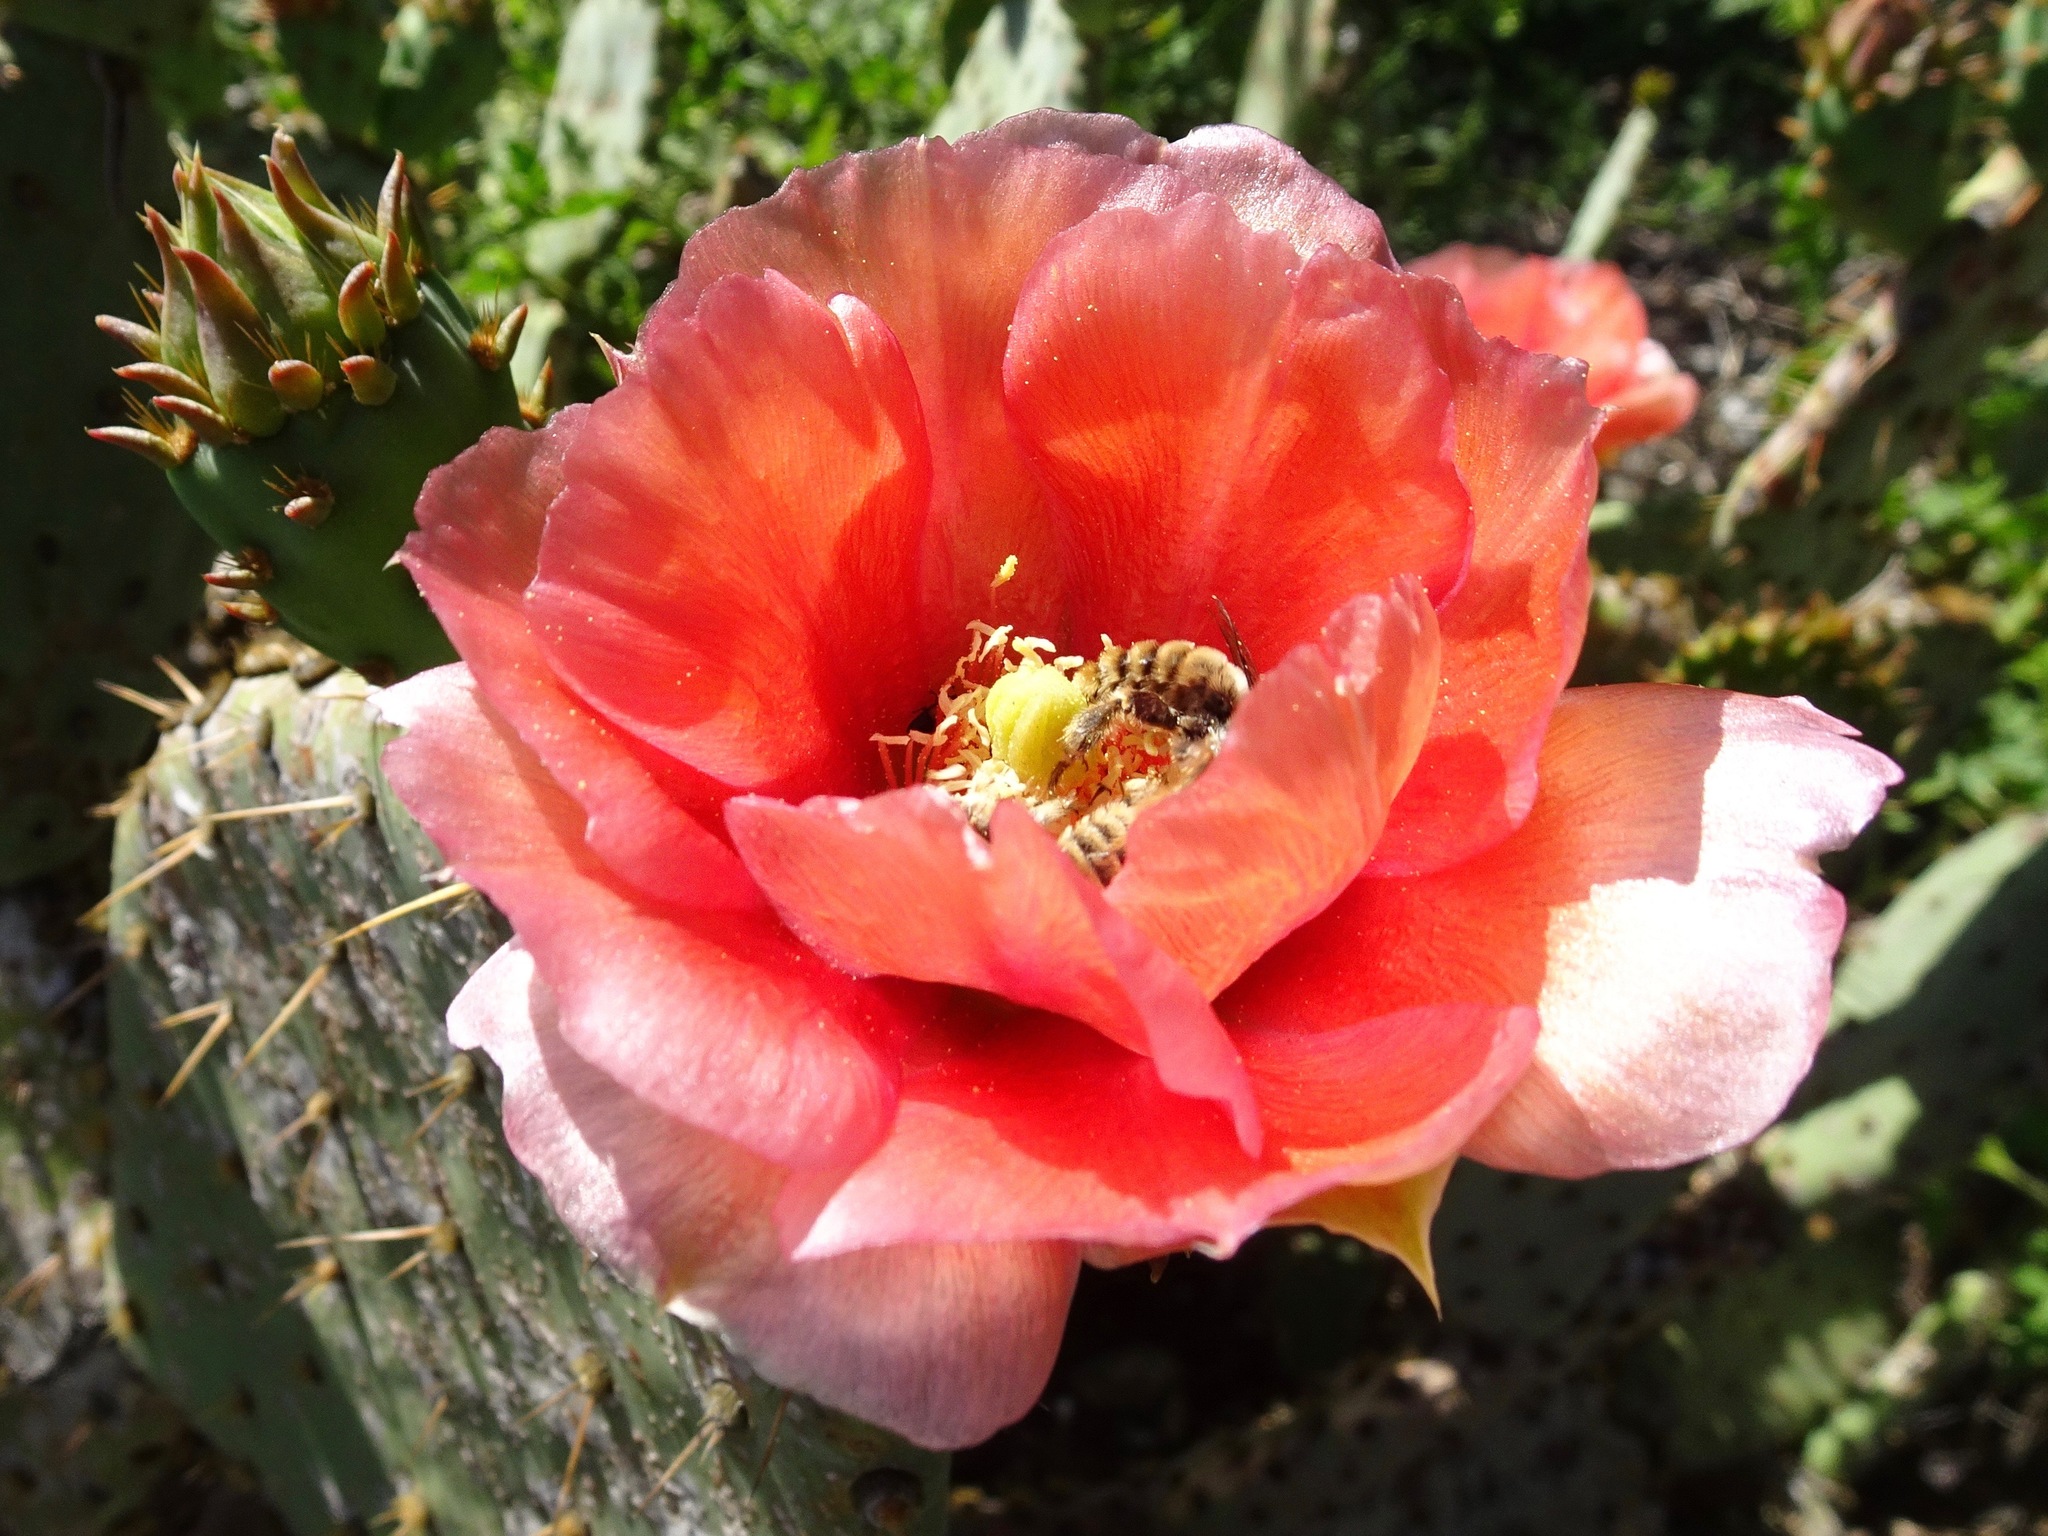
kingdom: Animalia
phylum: Arthropoda
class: Insecta
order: Hymenoptera
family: Apidae
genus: Diadasia
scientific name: Diadasia
